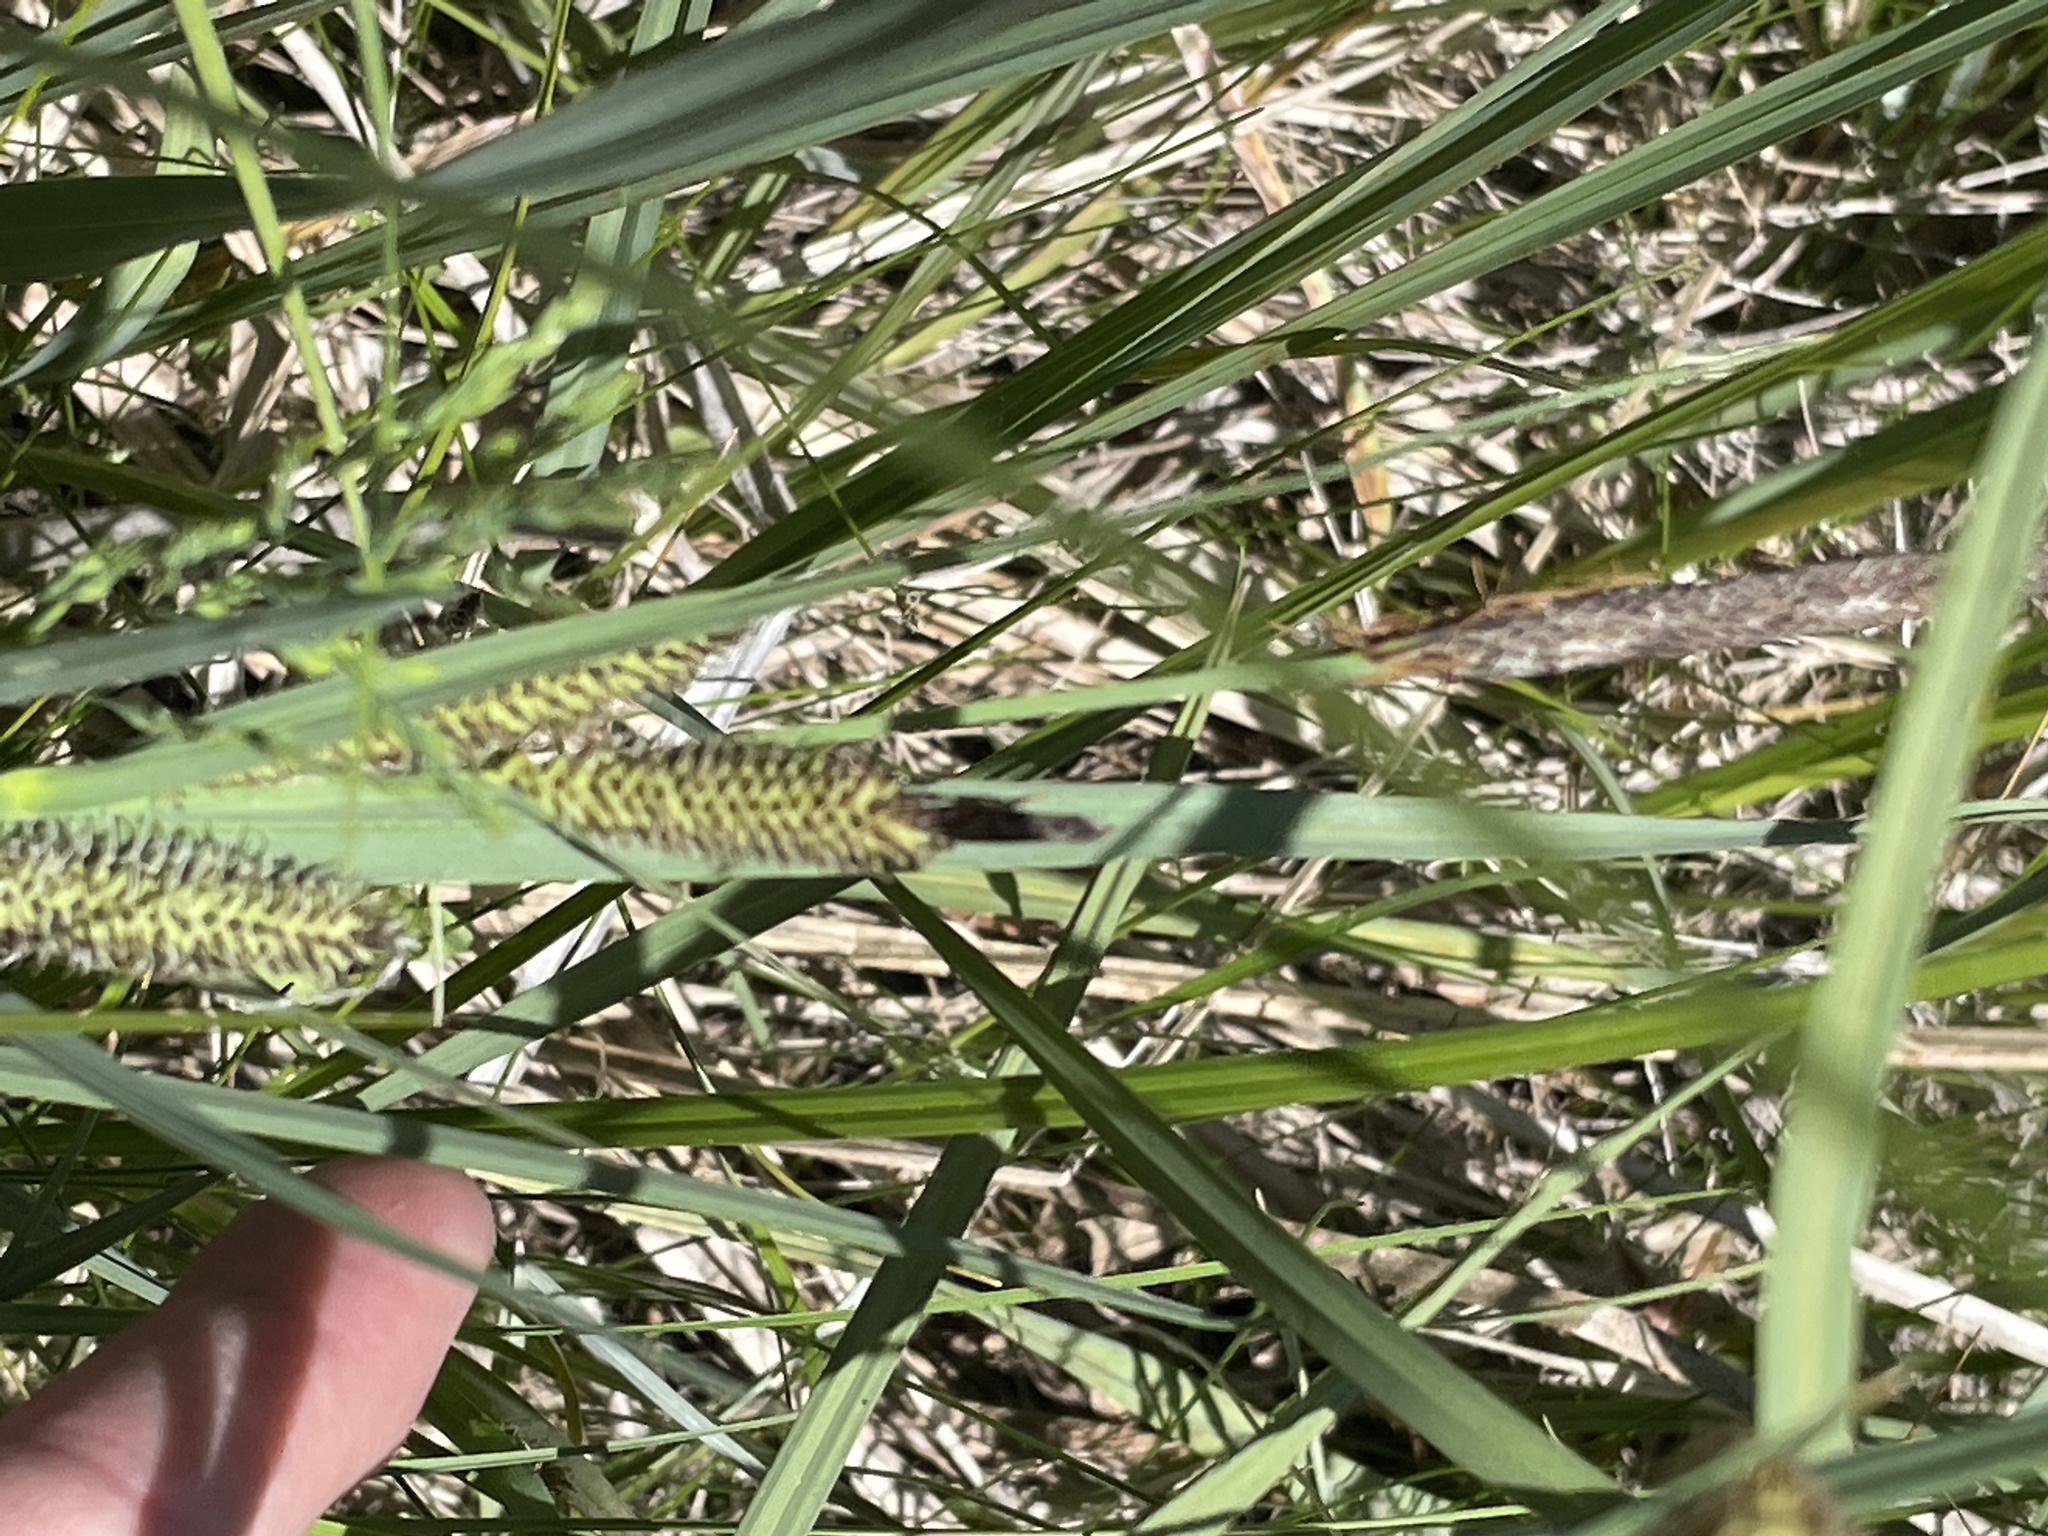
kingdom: Plantae
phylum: Tracheophyta
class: Liliopsida
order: Poales
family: Cyperaceae
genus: Carex
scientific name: Carex nebrascensis
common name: Nebraska sedge
